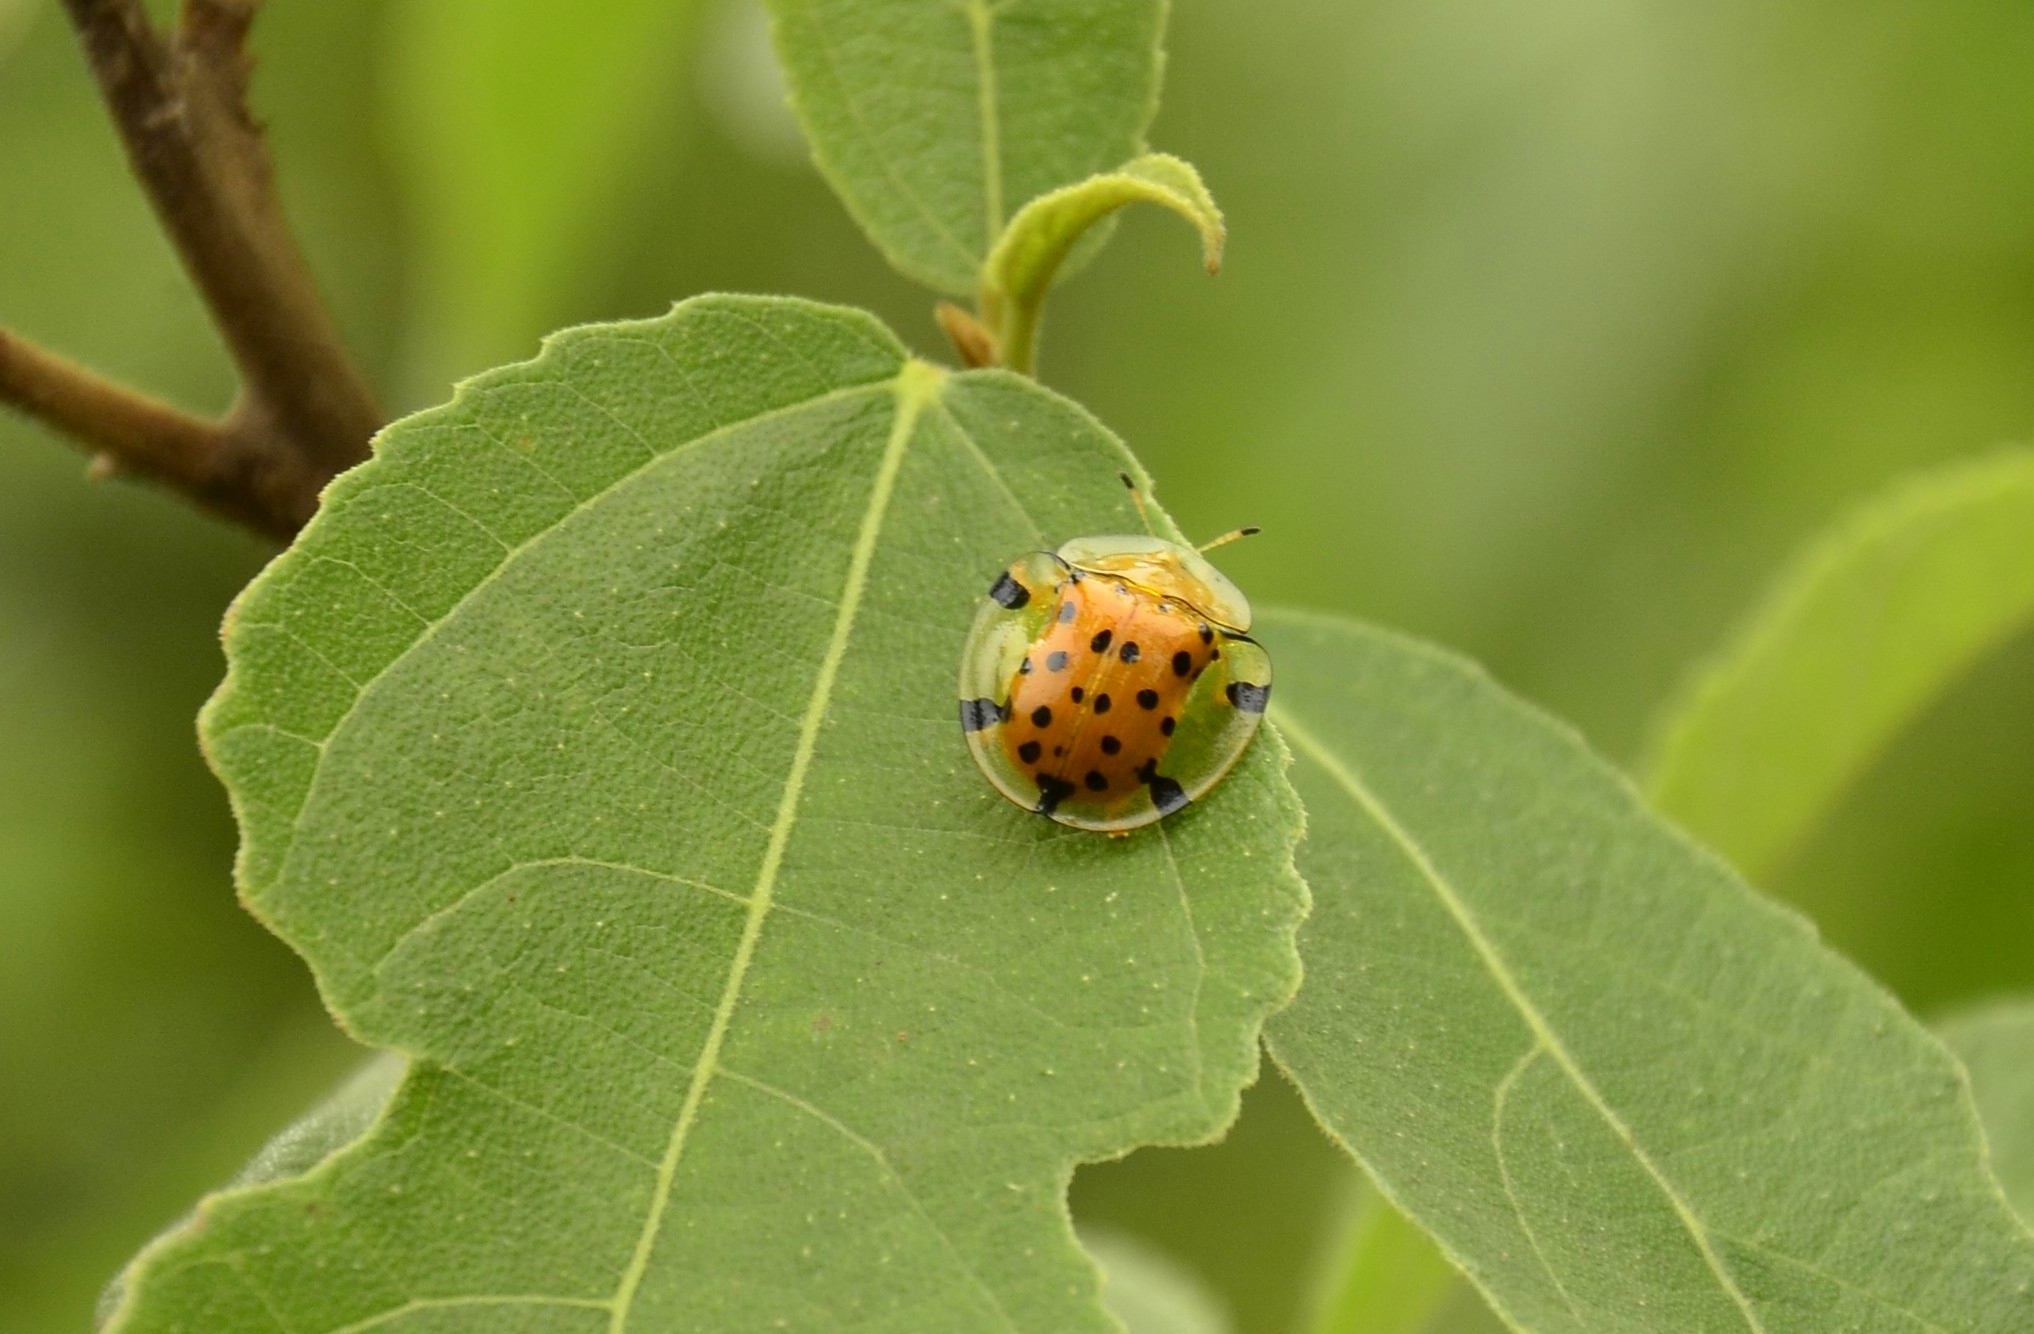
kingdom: Animalia
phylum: Arthropoda
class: Insecta
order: Coleoptera
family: Chrysomelidae
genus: Aspidimorpha
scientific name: Aspidimorpha miliaris
